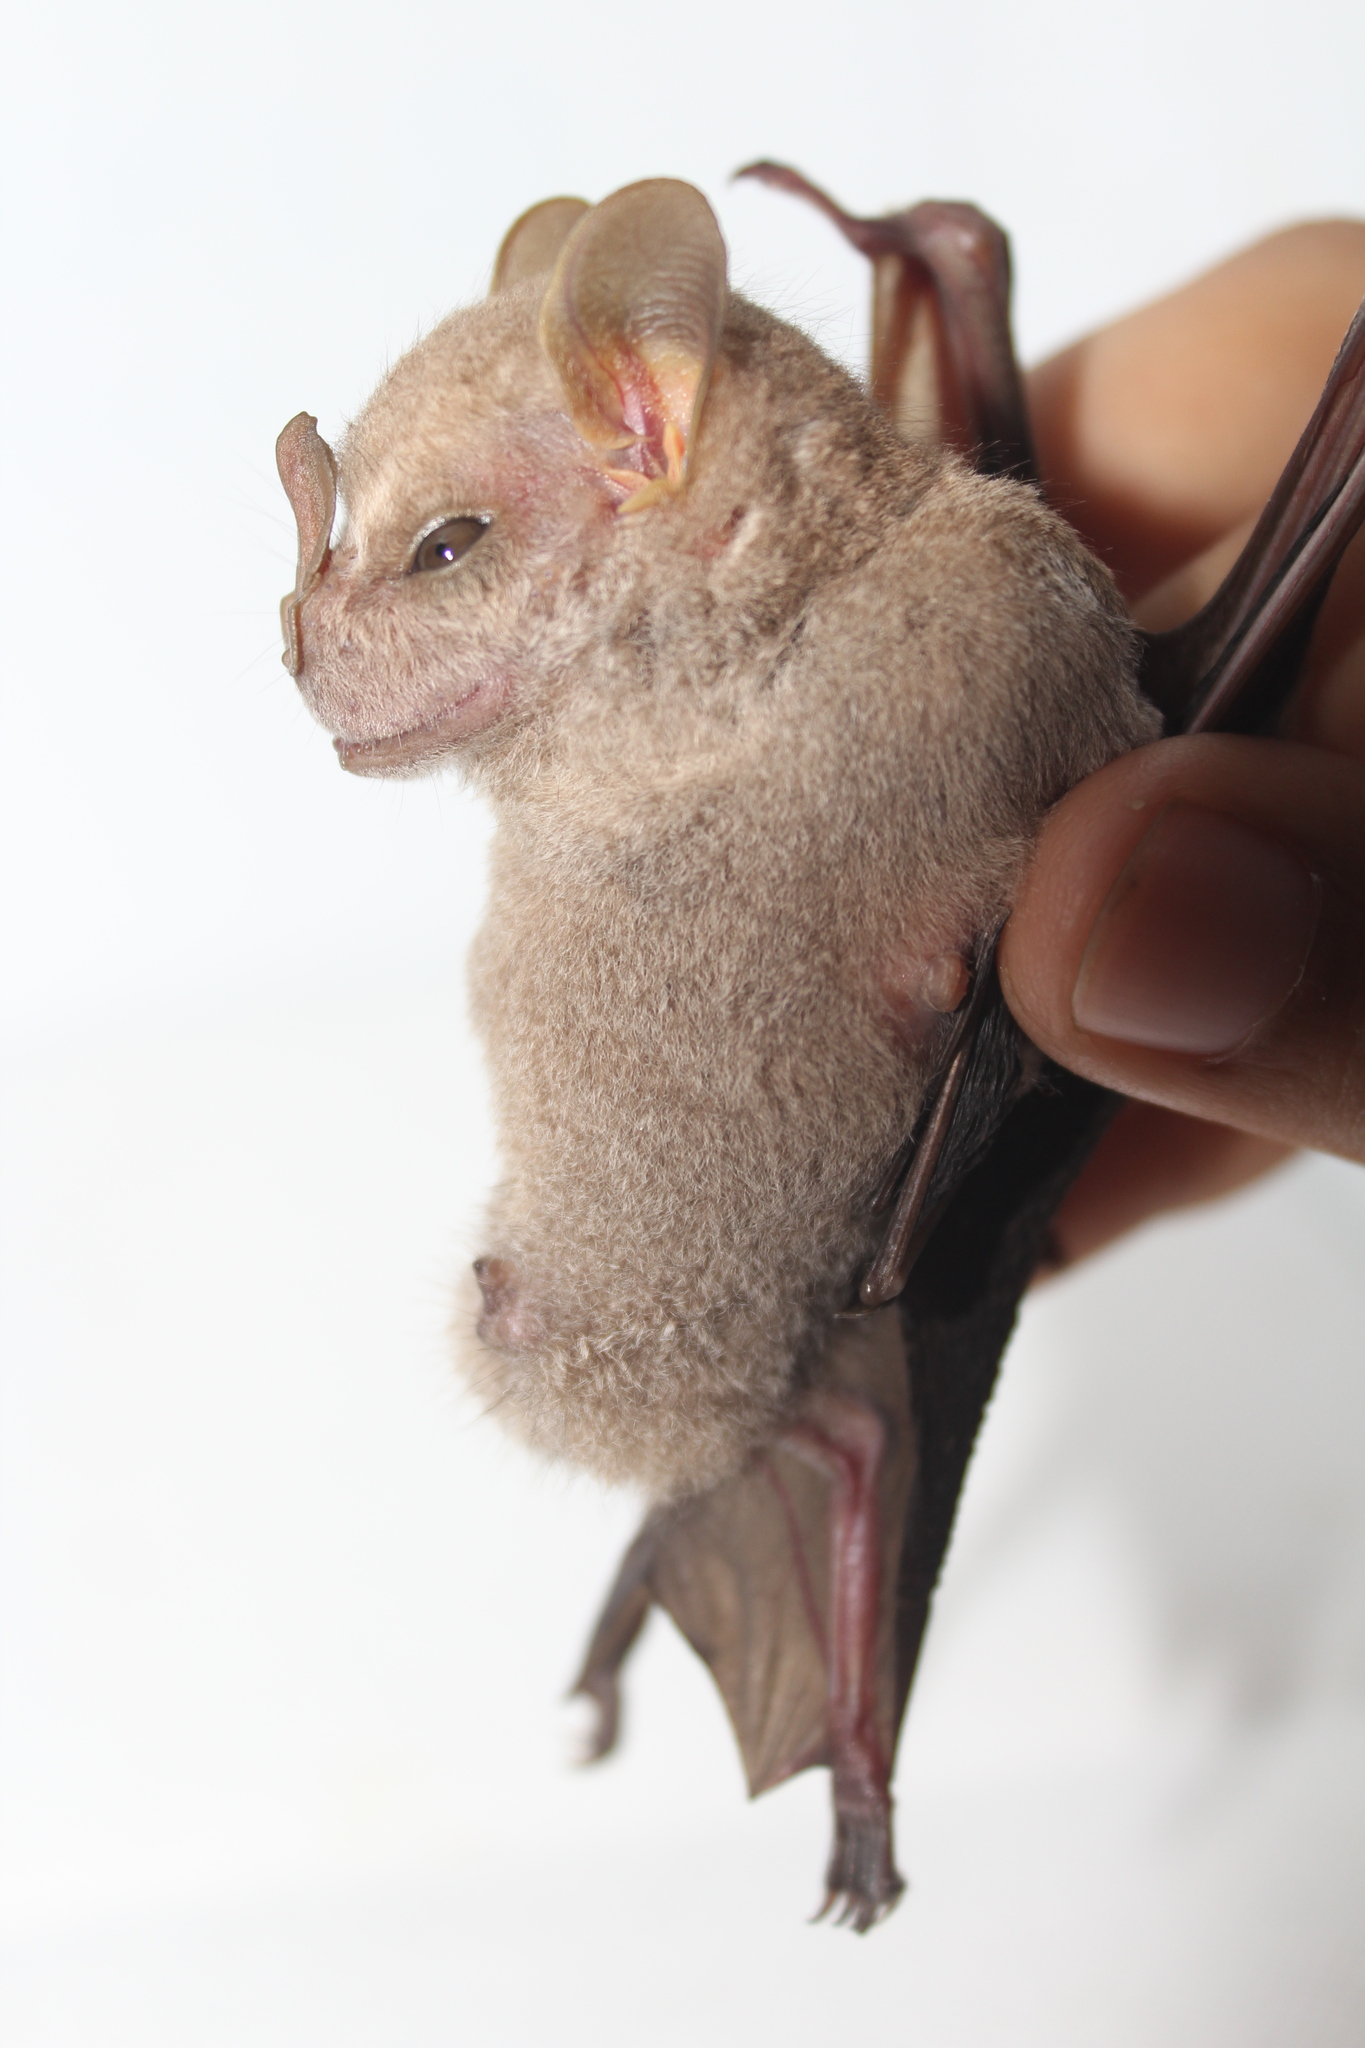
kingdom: Animalia
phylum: Chordata
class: Mammalia
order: Chiroptera
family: Phyllostomidae
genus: Chiroderma
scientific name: Chiroderma villosum
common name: Hairy big-eyed bat
